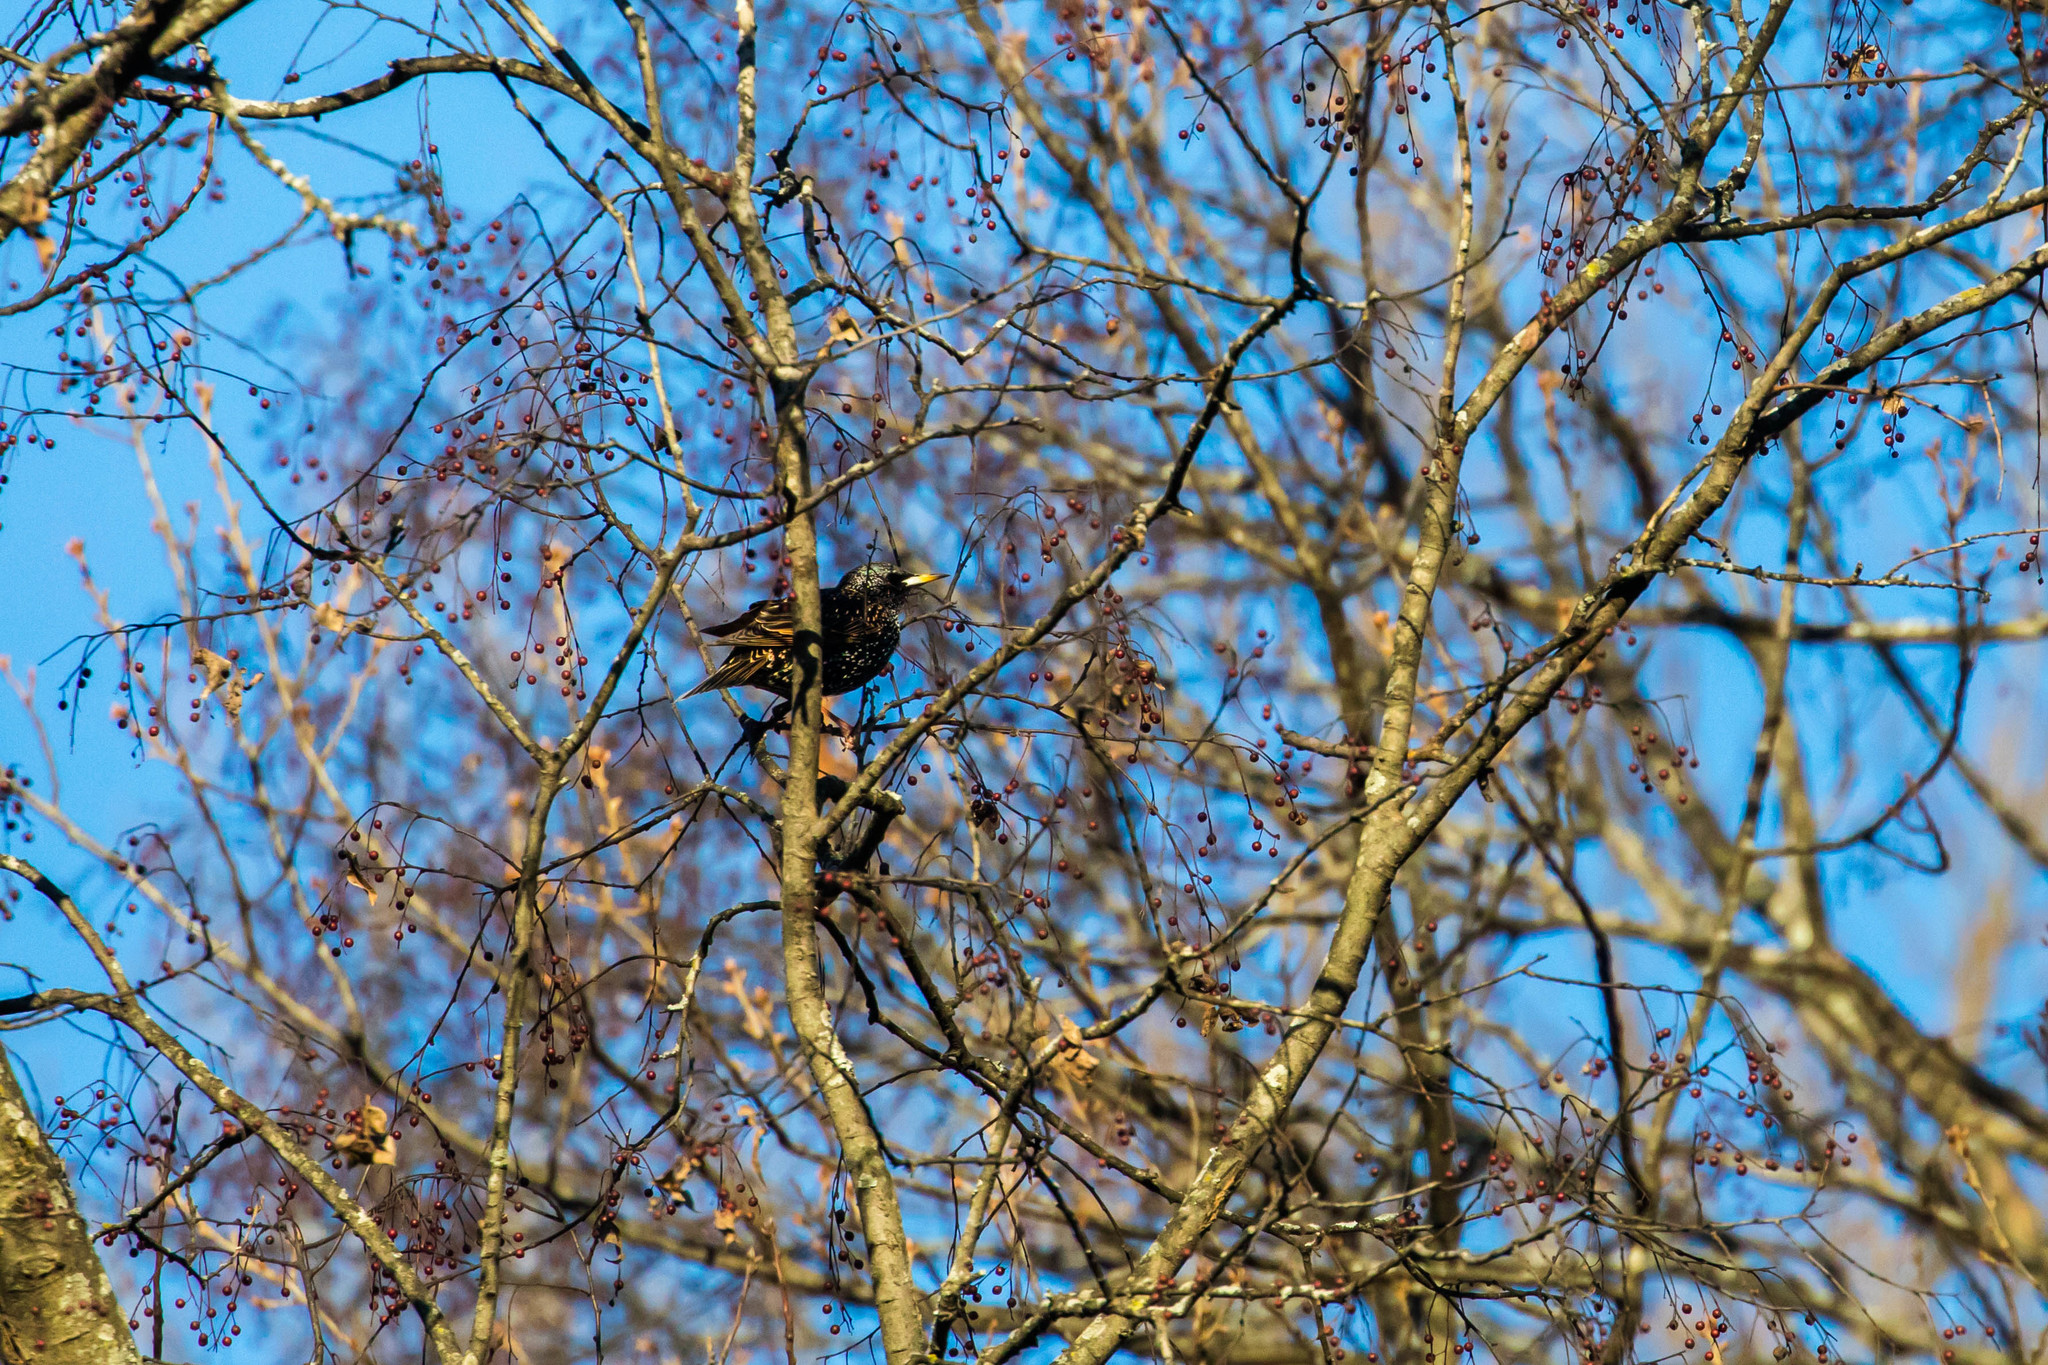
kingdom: Animalia
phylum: Chordata
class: Aves
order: Passeriformes
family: Sturnidae
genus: Sturnus
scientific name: Sturnus vulgaris
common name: Common starling
